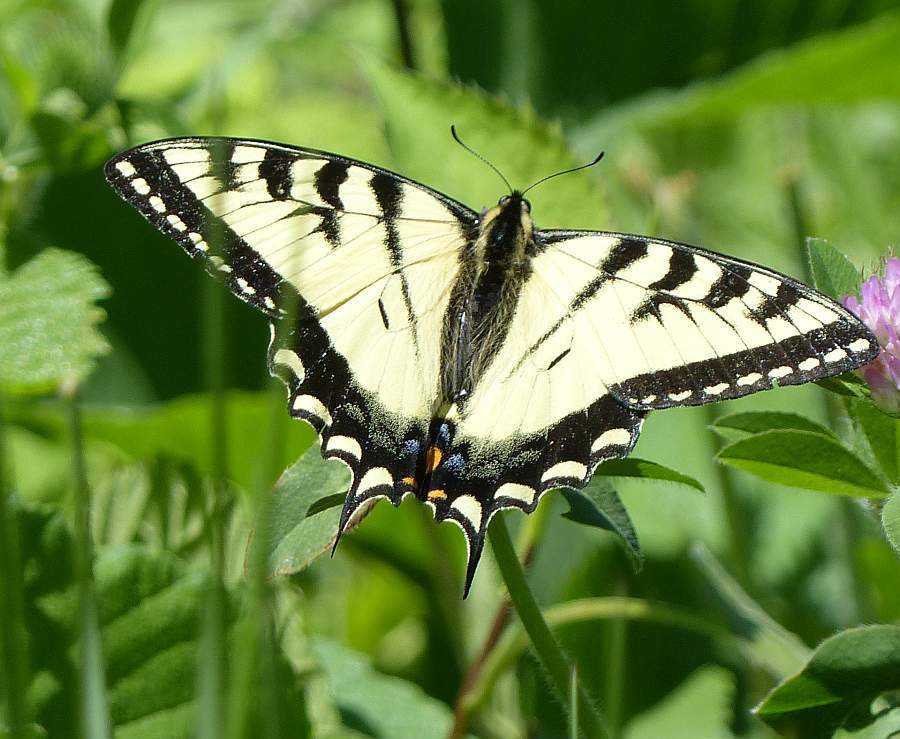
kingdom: Animalia
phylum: Arthropoda
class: Insecta
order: Lepidoptera
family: Papilionidae
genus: Papilio
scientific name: Papilio canadensis
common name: Canadian tiger swallowtail
